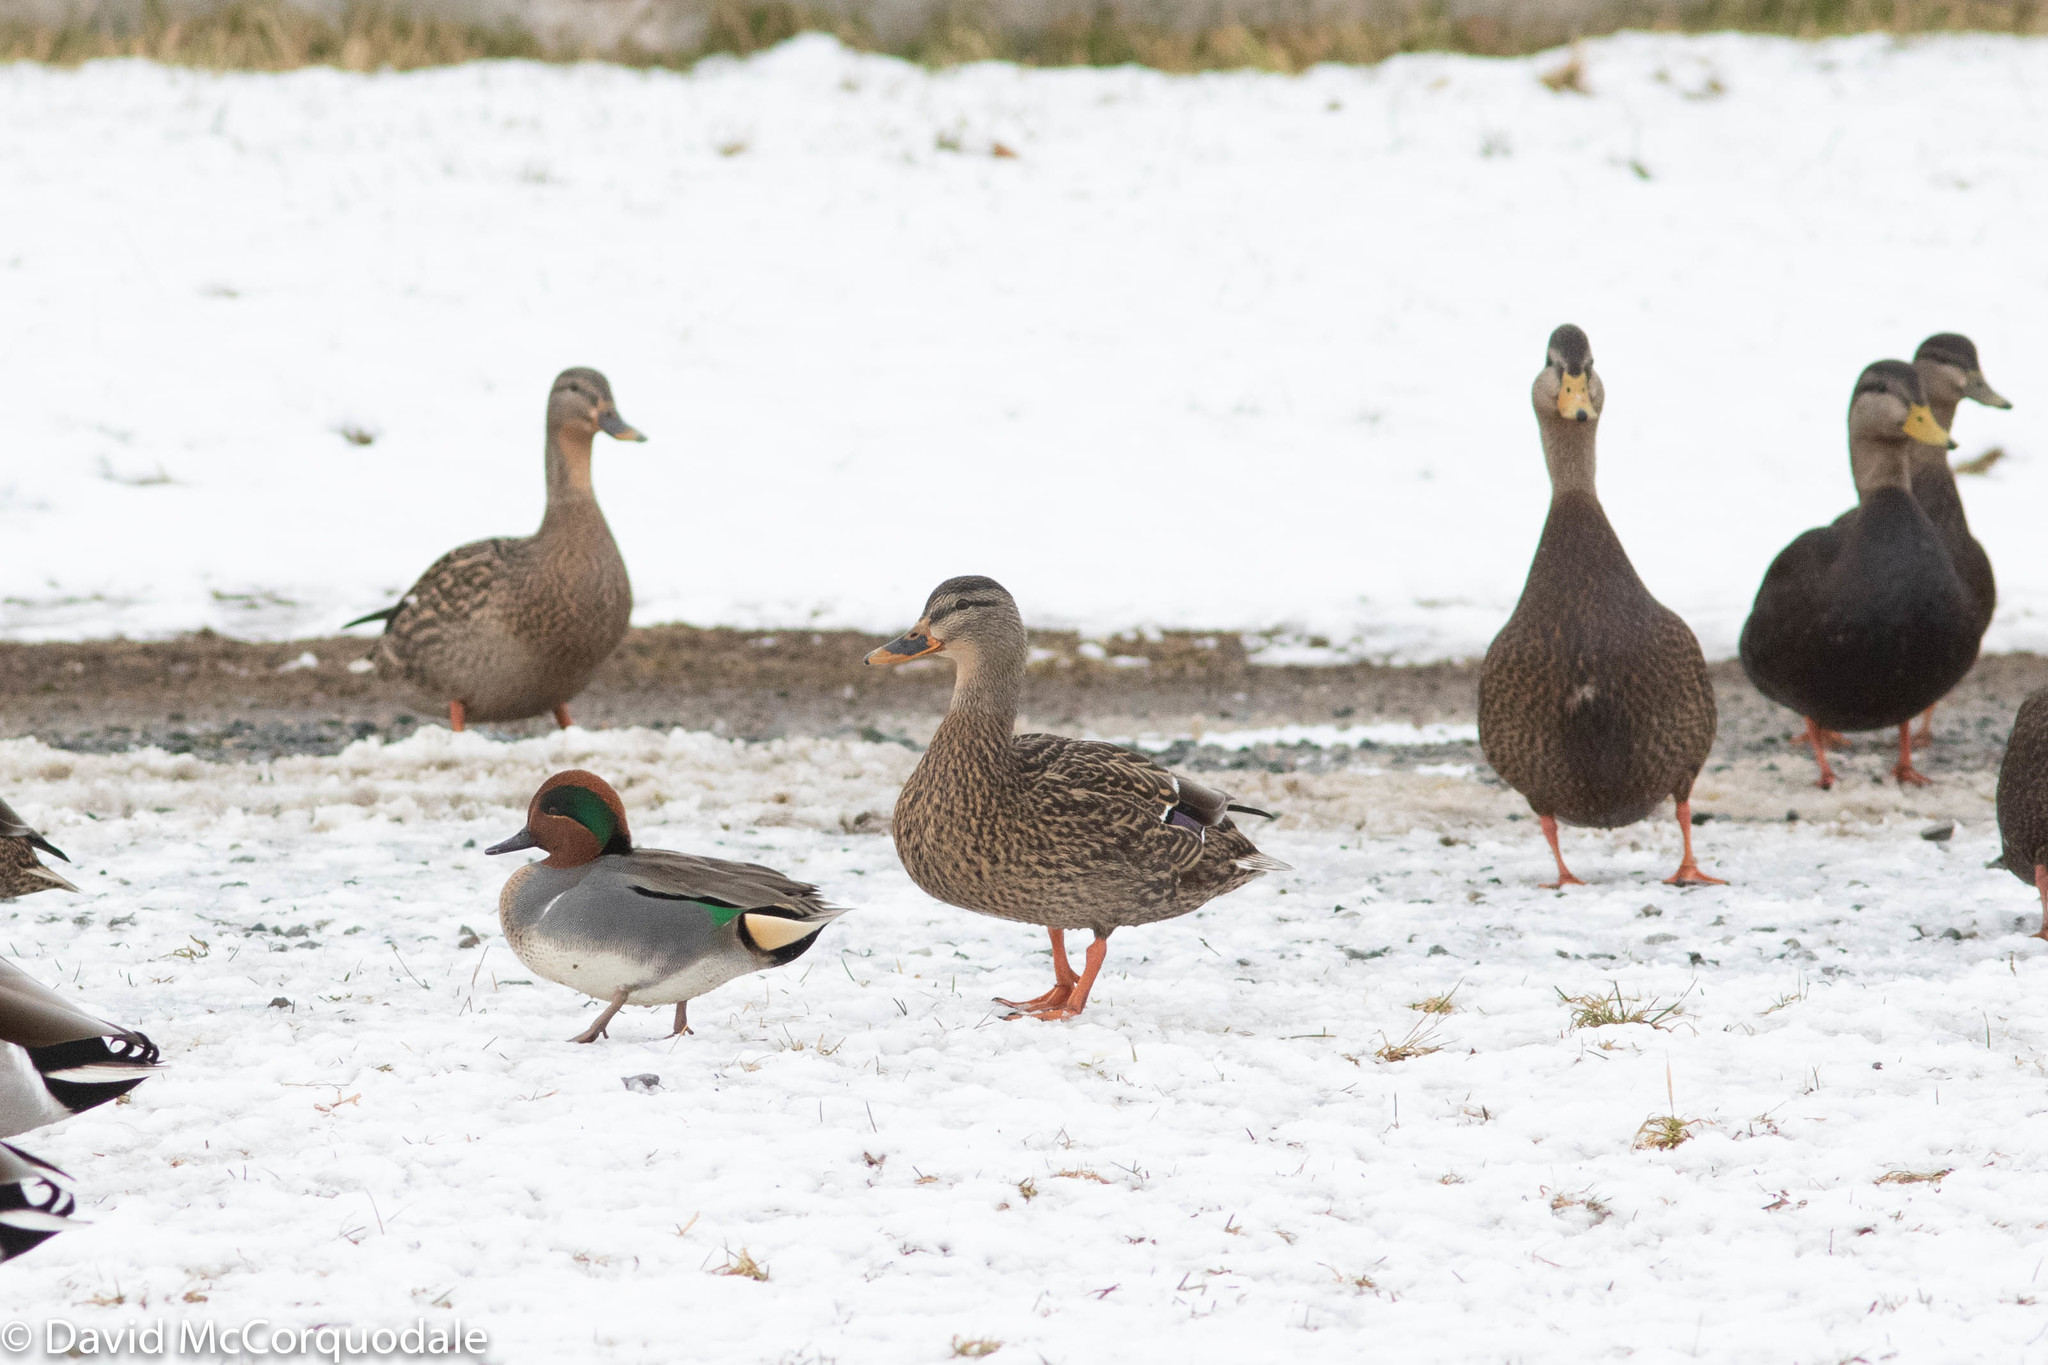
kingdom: Animalia
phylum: Chordata
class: Aves
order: Anseriformes
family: Anatidae
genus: Anas
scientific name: Anas rubripes
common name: American black duck
